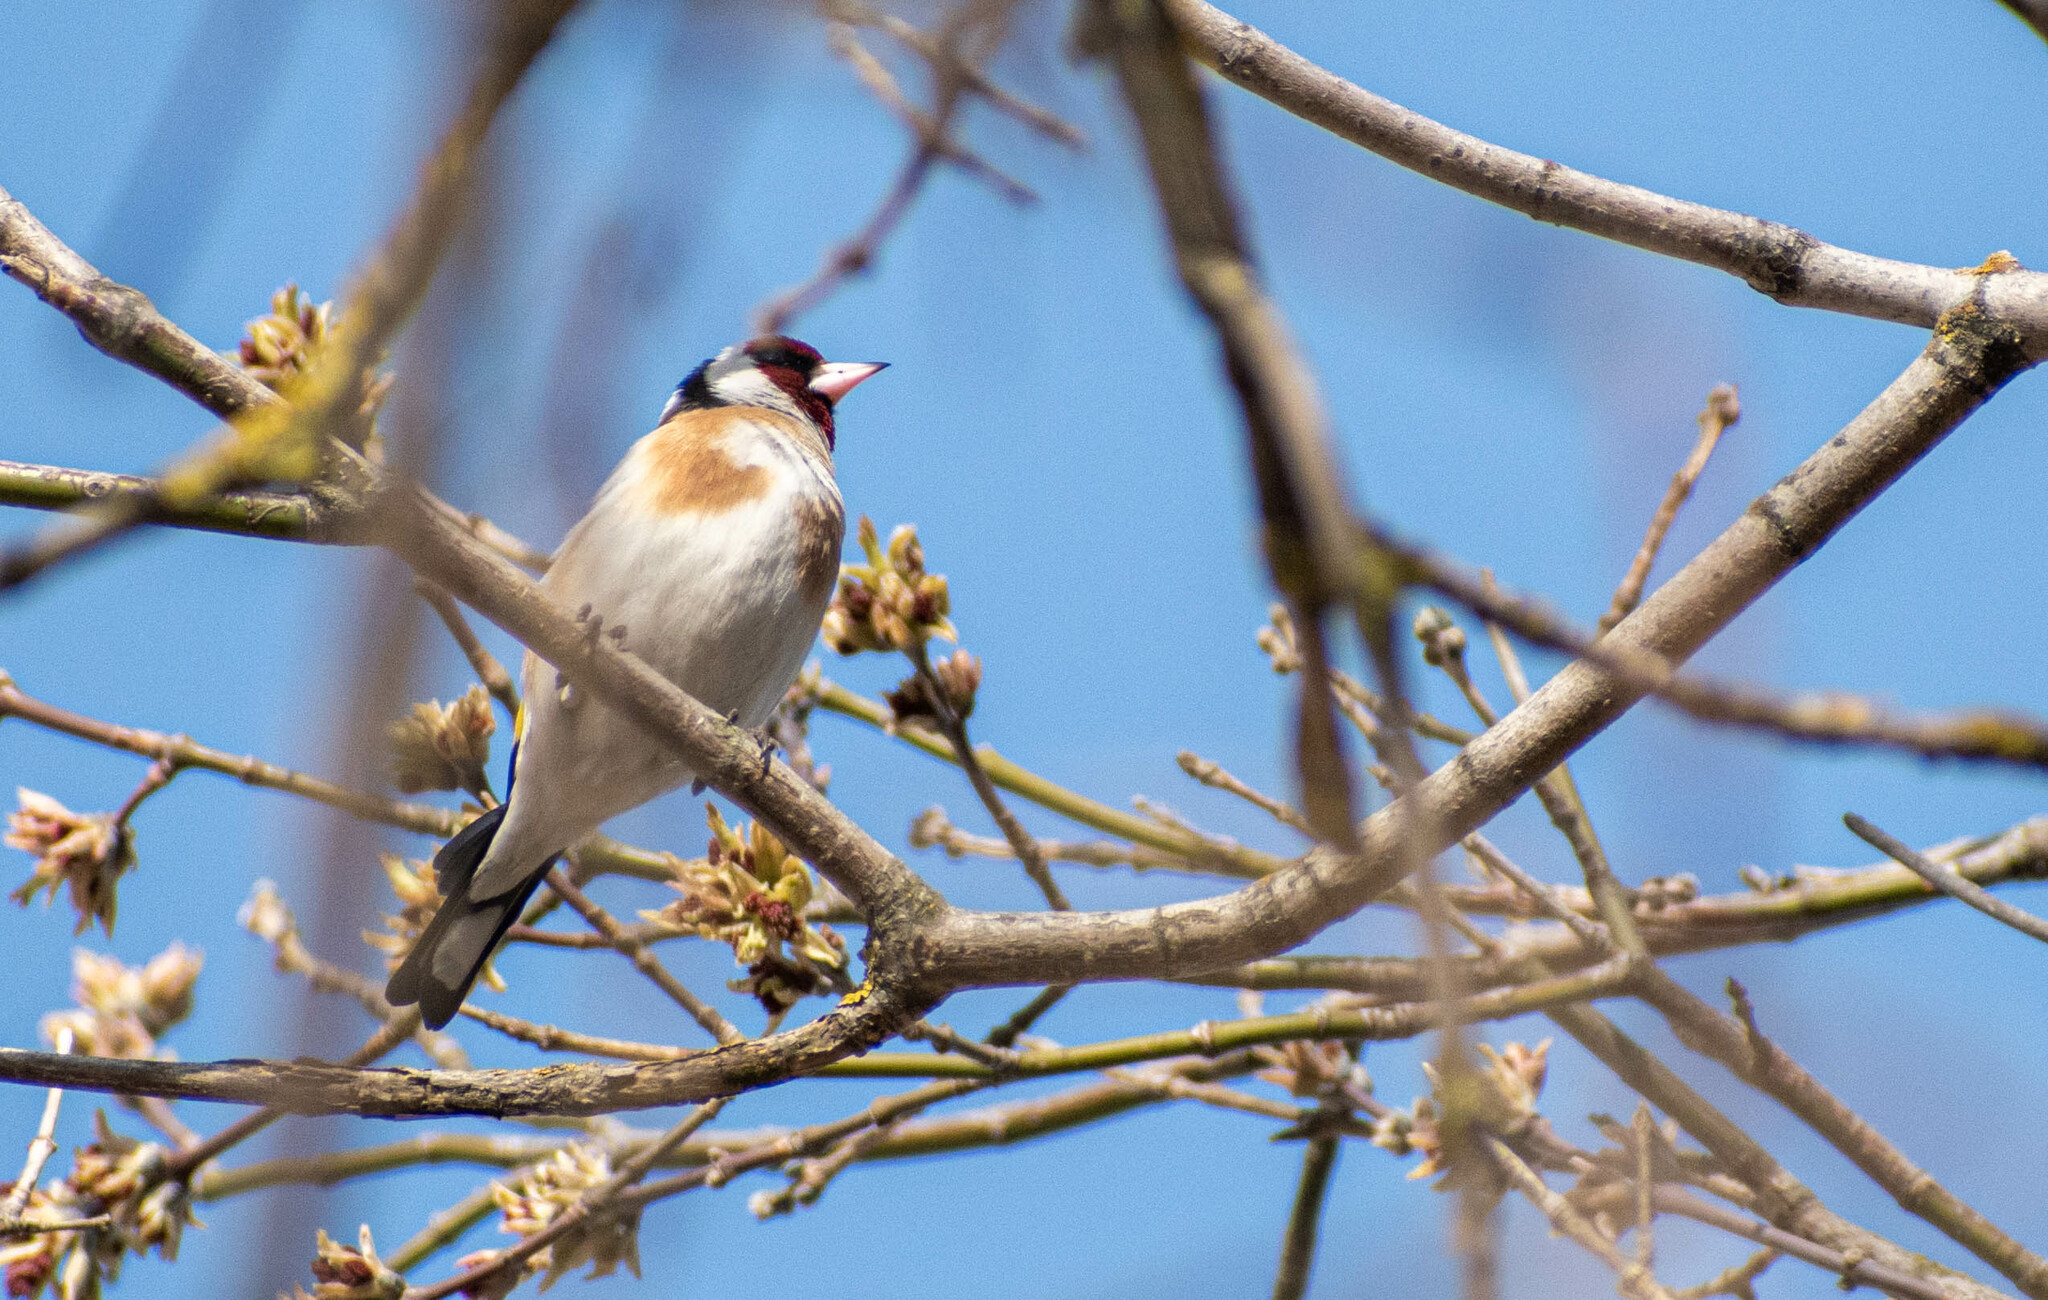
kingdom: Animalia
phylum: Chordata
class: Aves
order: Passeriformes
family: Fringillidae
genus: Carduelis
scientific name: Carduelis carduelis
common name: European goldfinch
